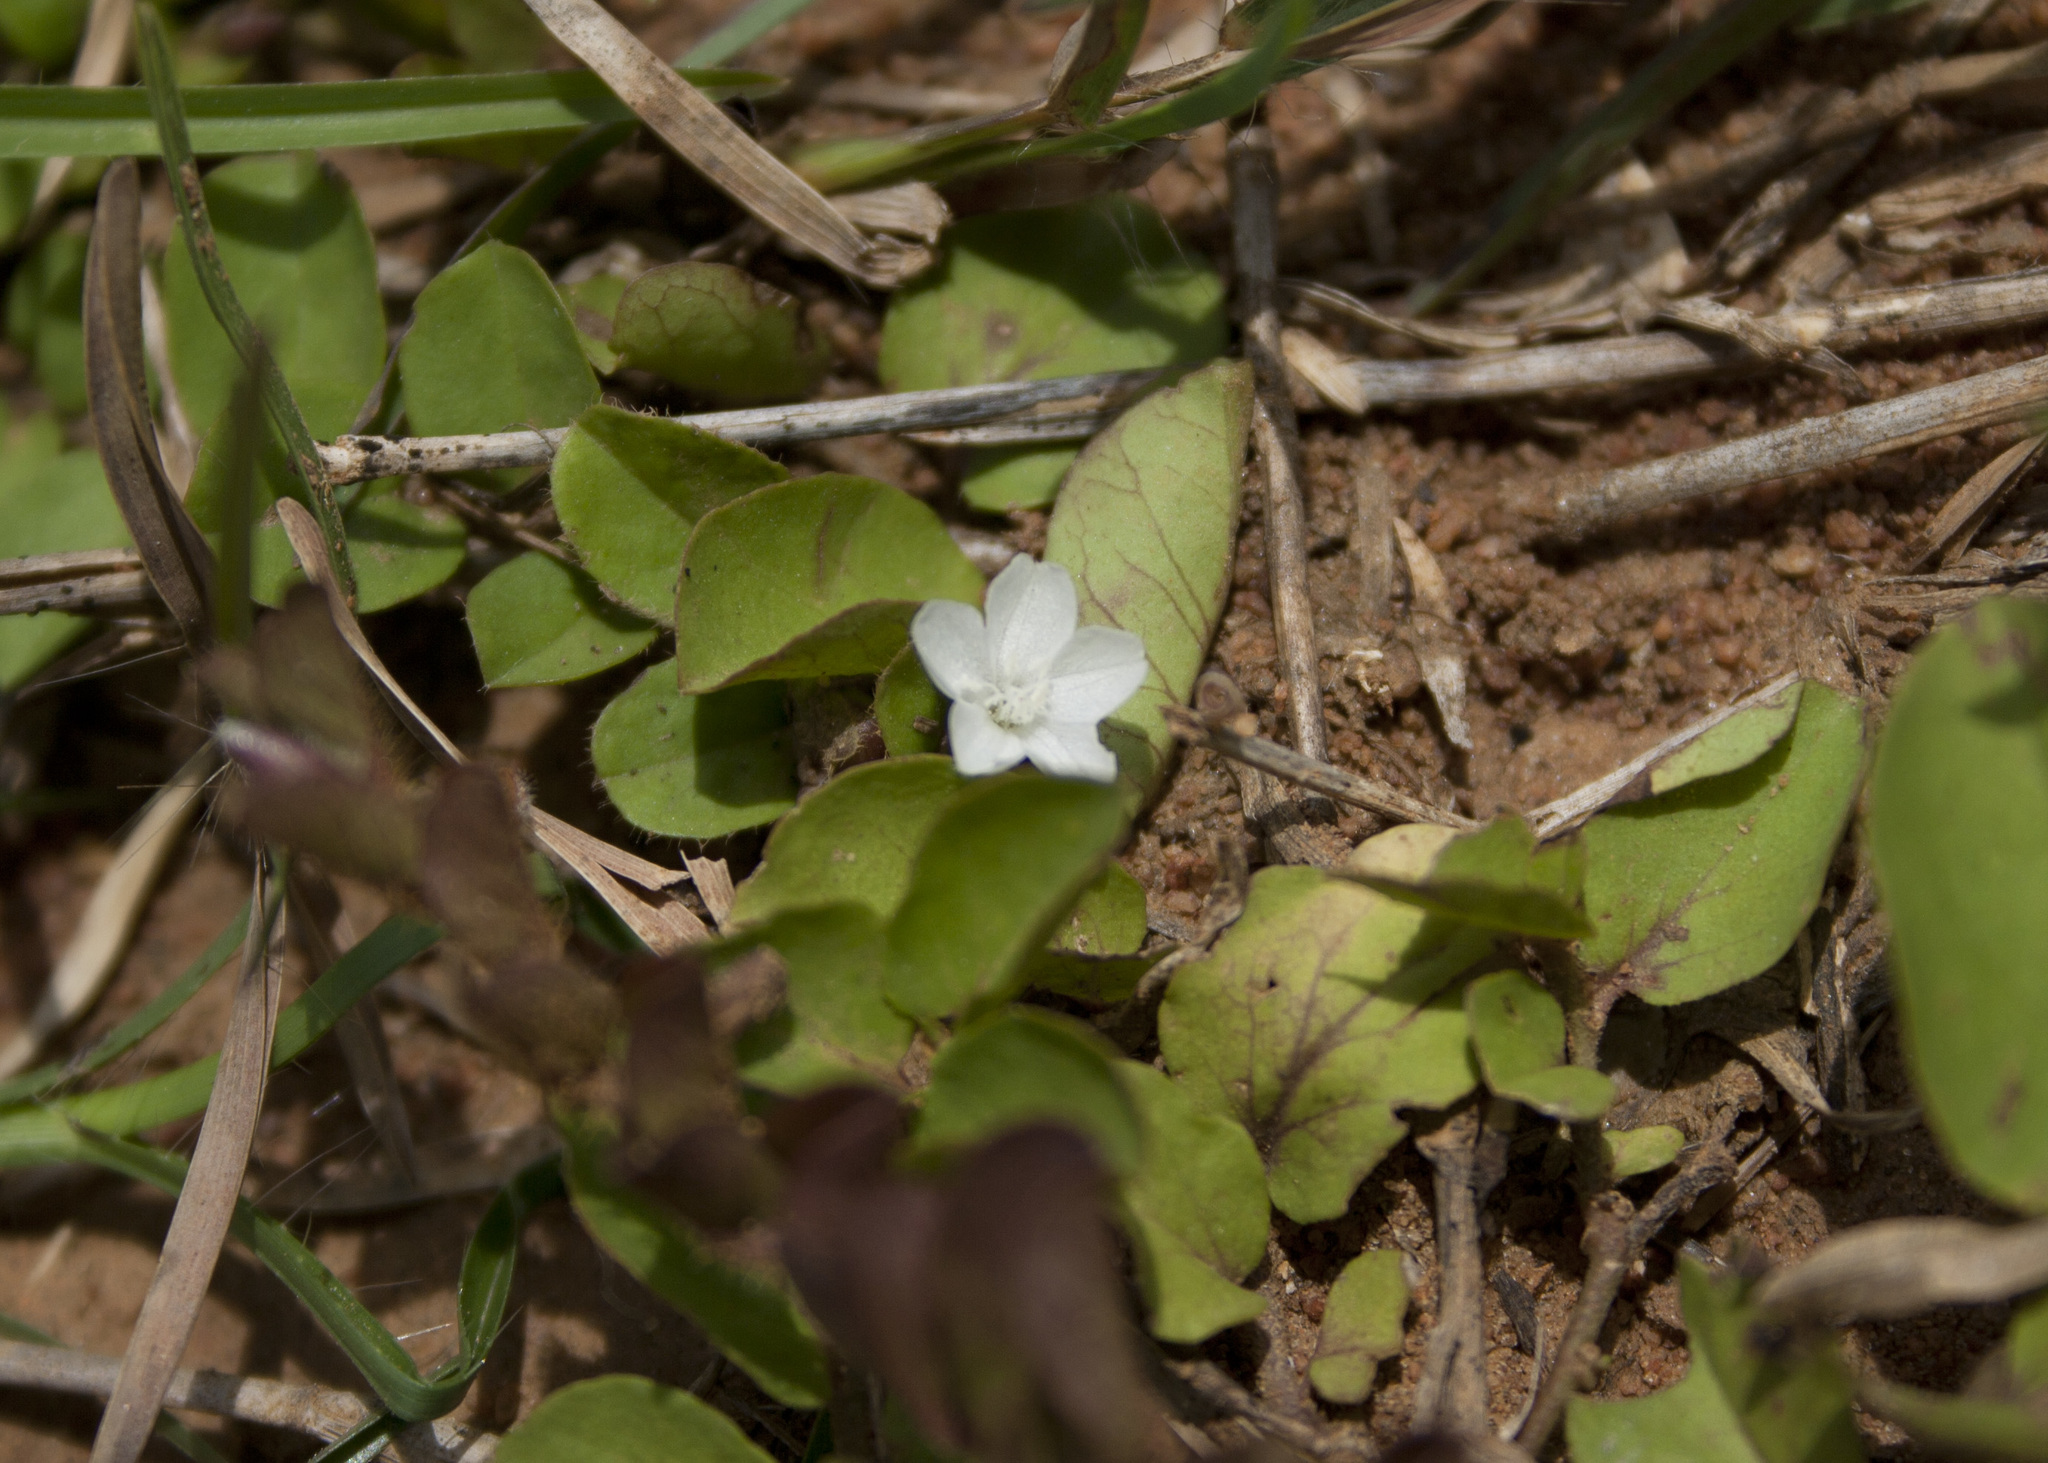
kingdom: Plantae
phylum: Tracheophyta
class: Magnoliopsida
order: Solanales
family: Convolvulaceae
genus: Evolvulus
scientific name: Evolvulus nummularius
